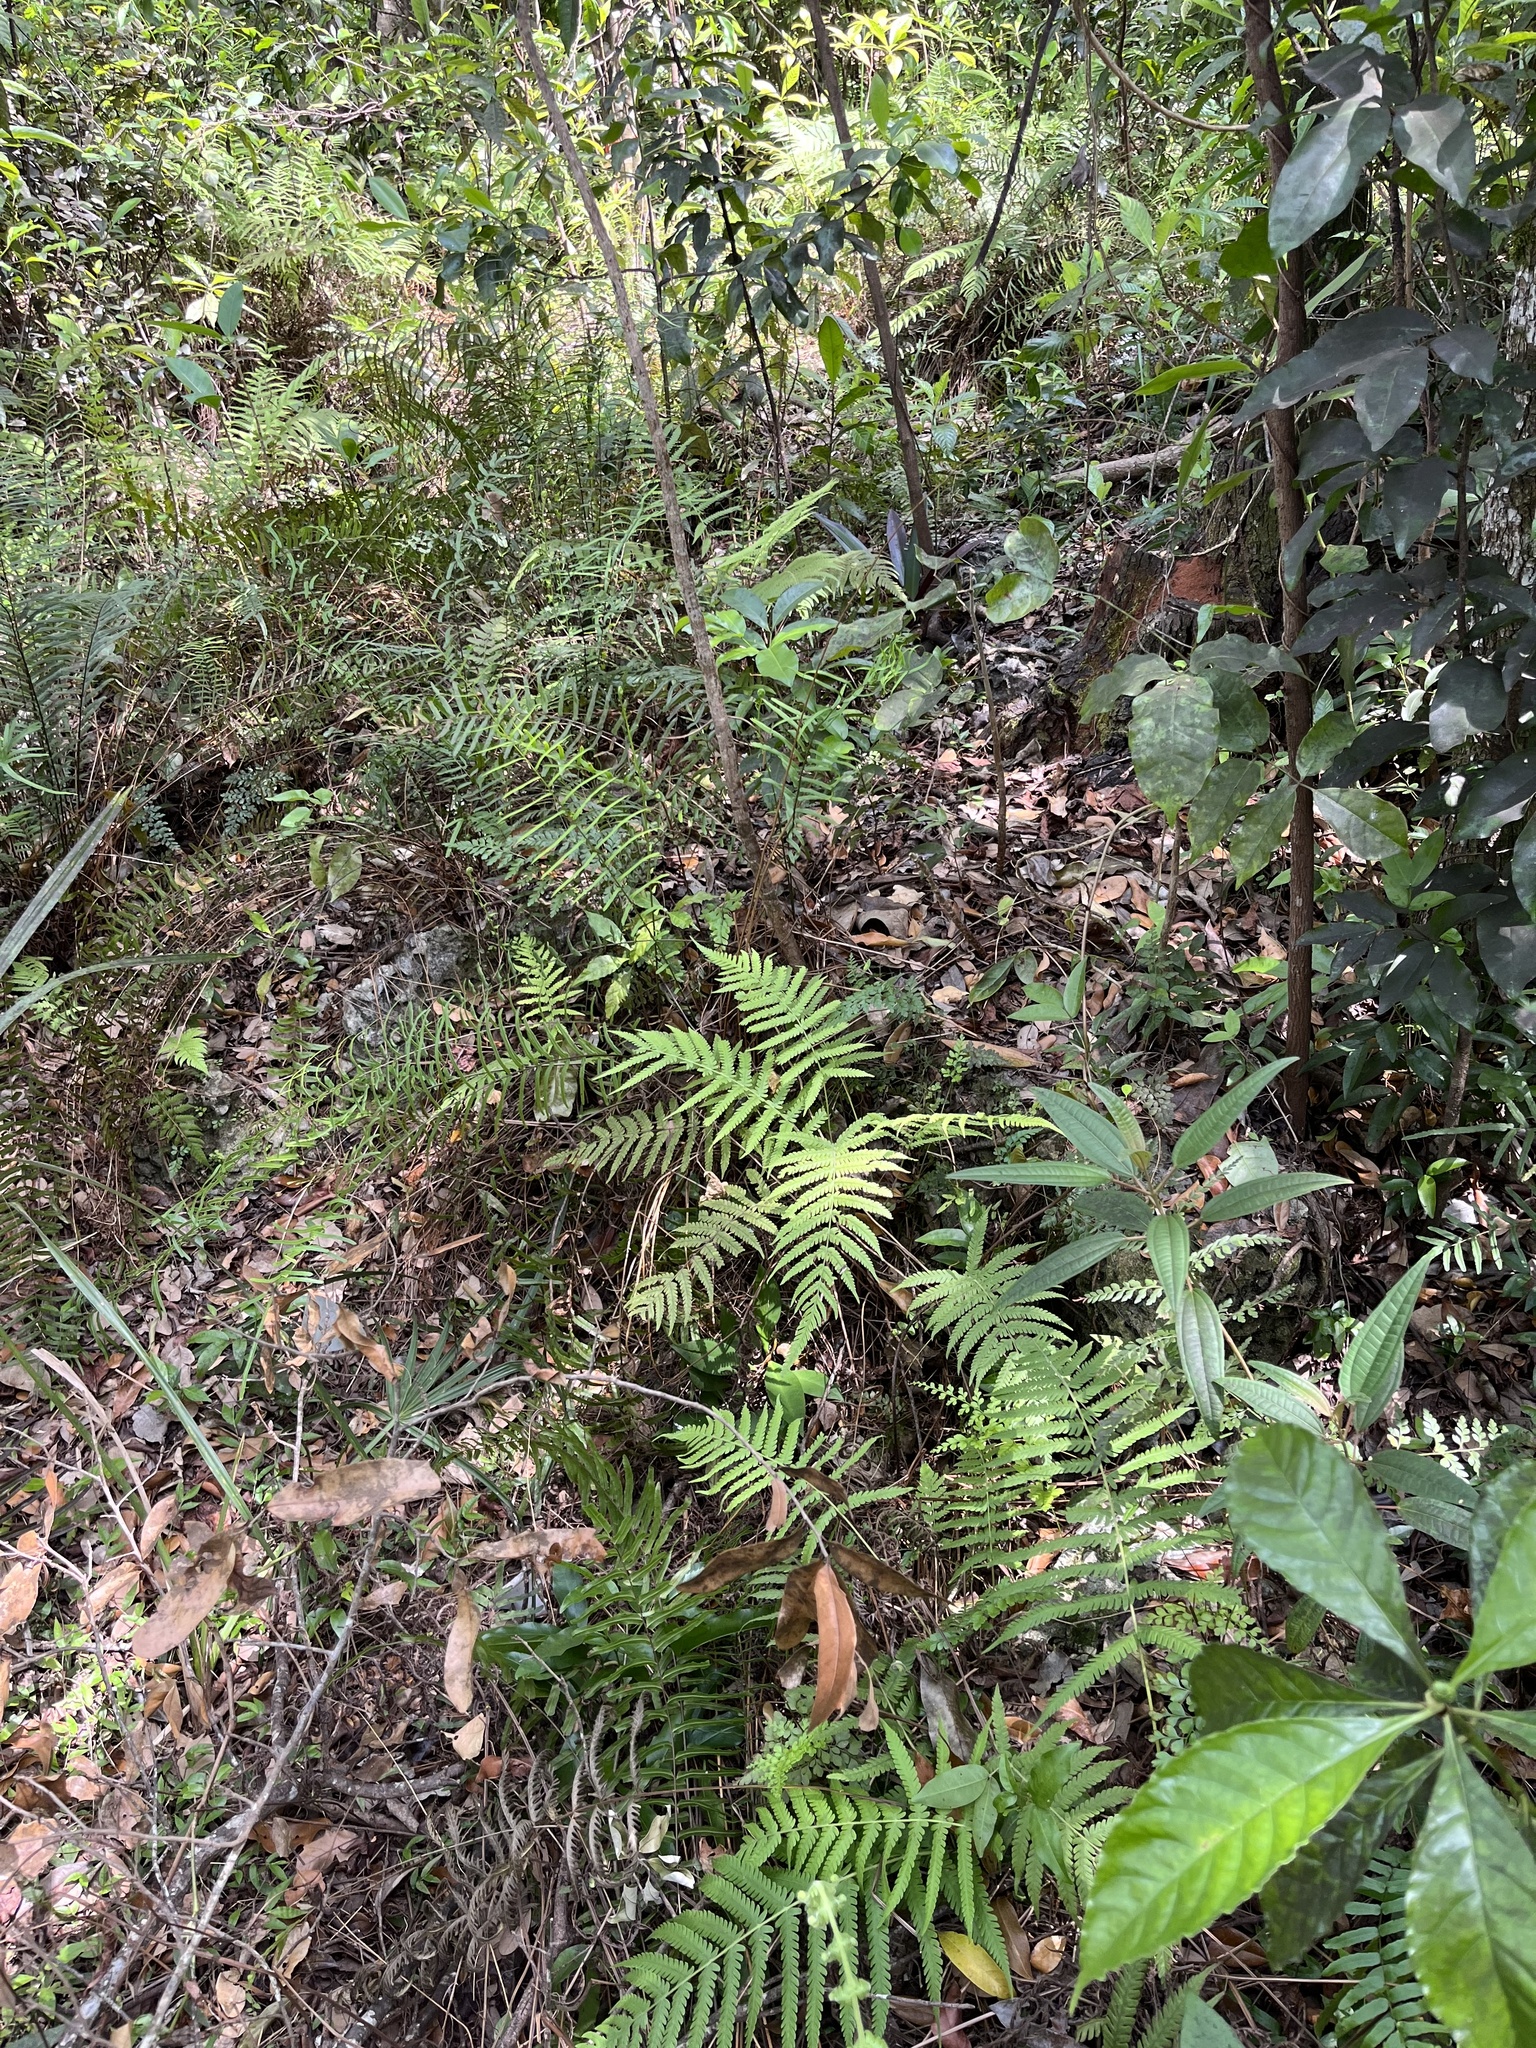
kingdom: Plantae
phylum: Tracheophyta
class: Magnoliopsida
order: Myrtales
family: Melastomataceae
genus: Miconia
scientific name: Miconia bicolor
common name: Johnnyberry
